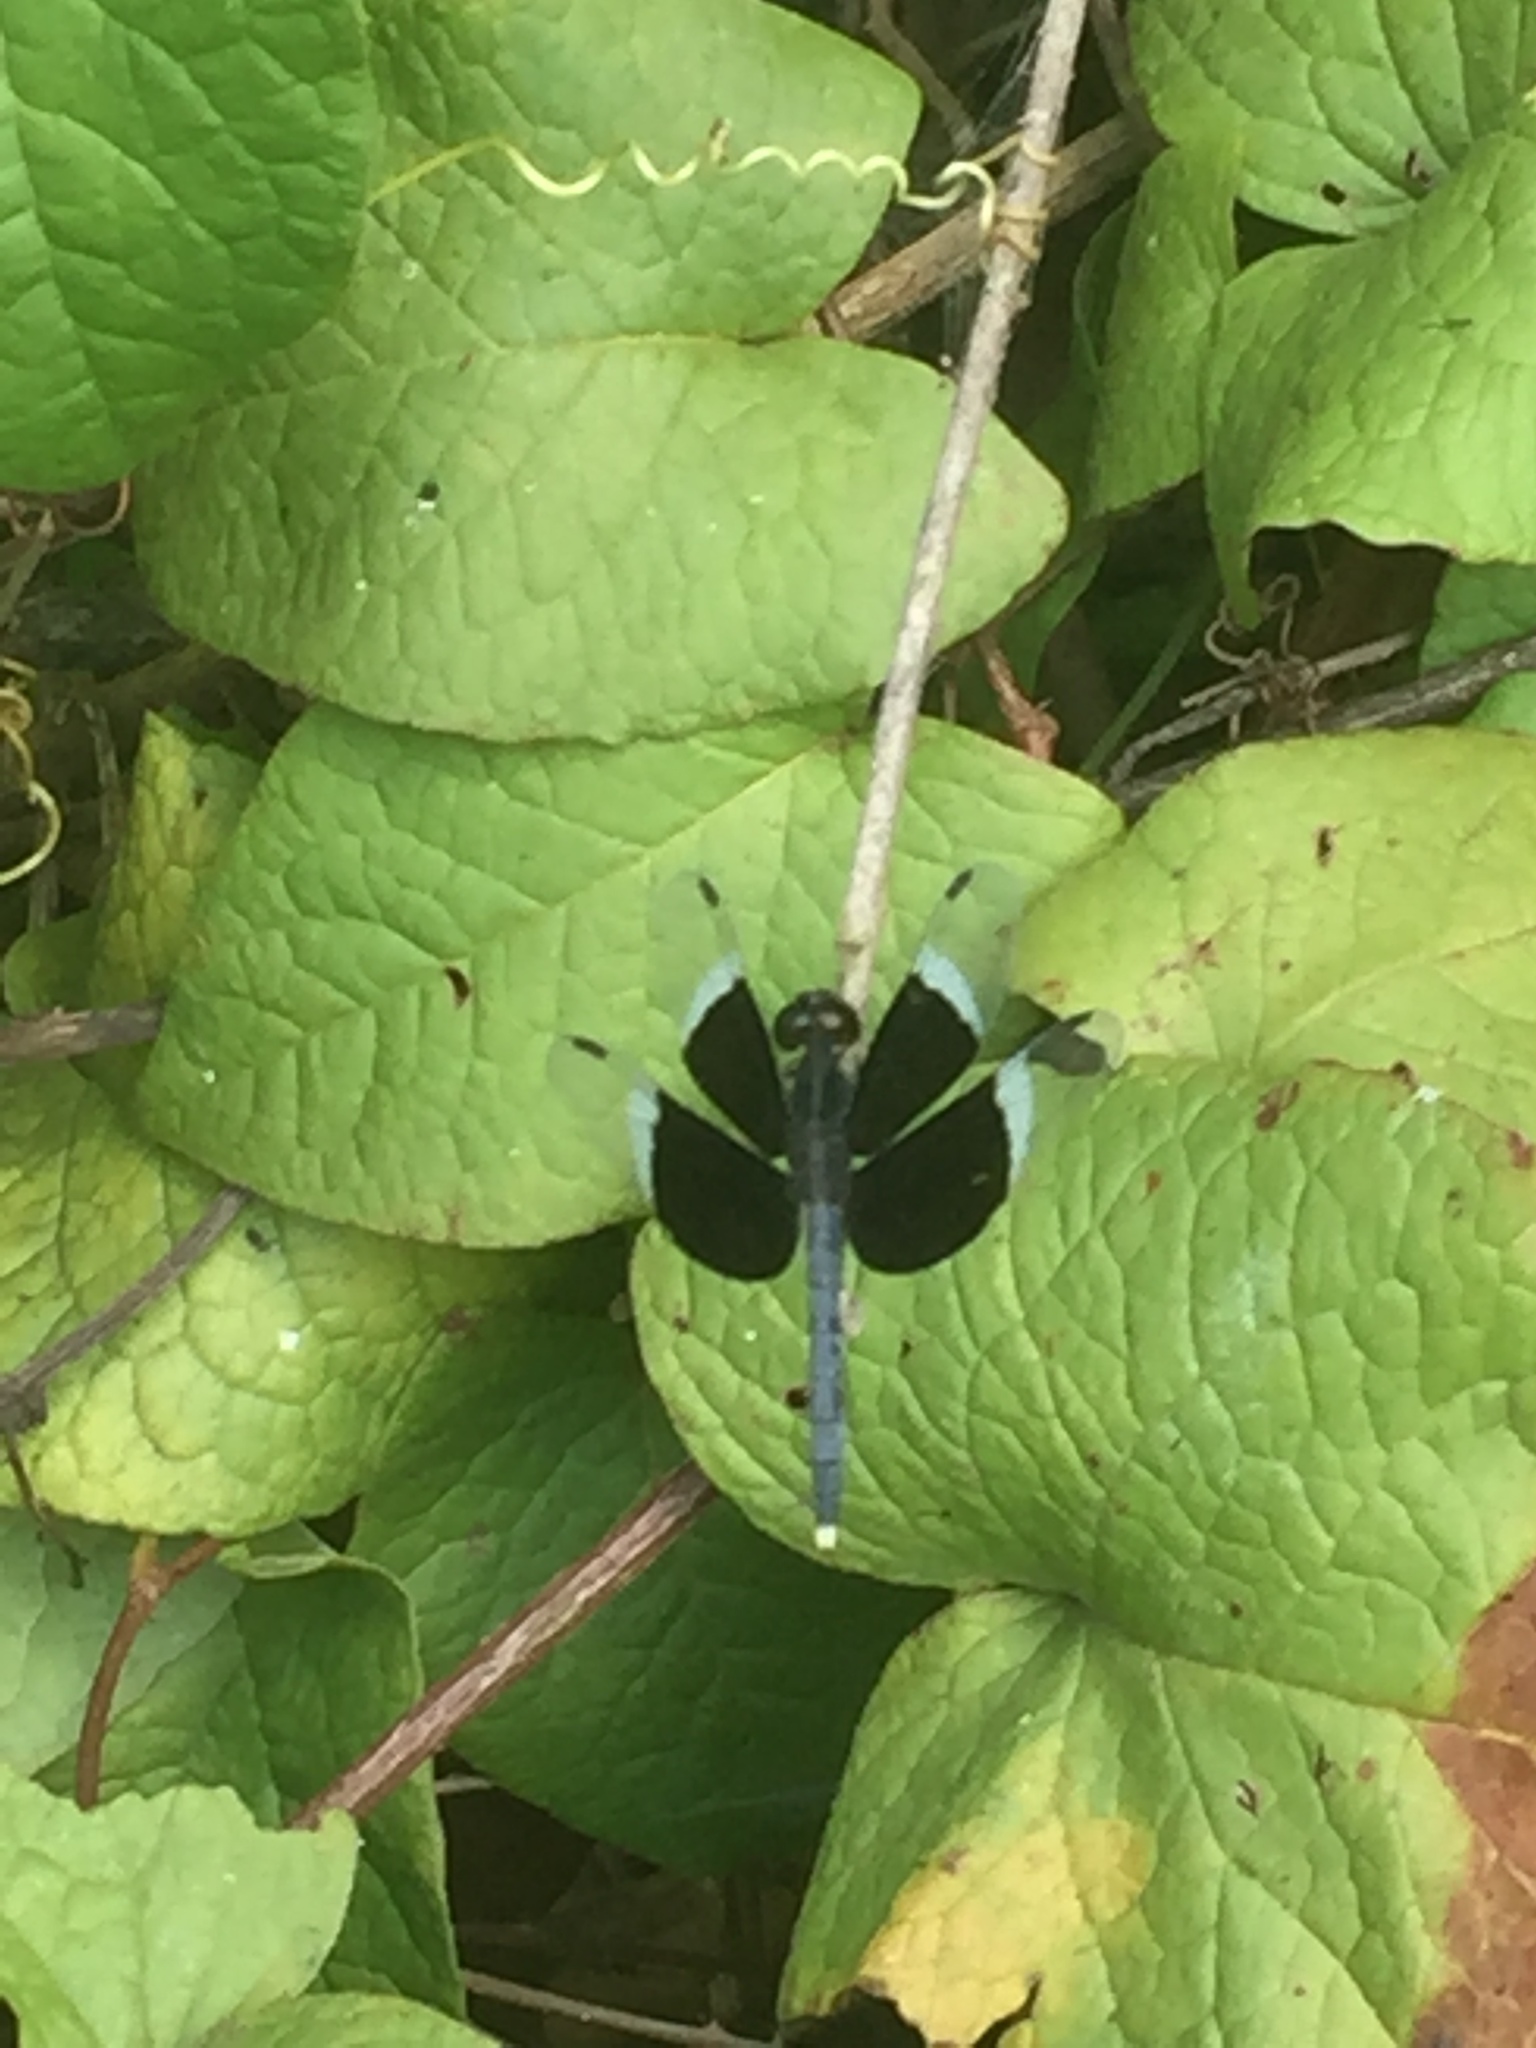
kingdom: Animalia
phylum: Arthropoda
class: Insecta
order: Odonata
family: Libellulidae
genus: Neurothemis
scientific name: Neurothemis tullia
